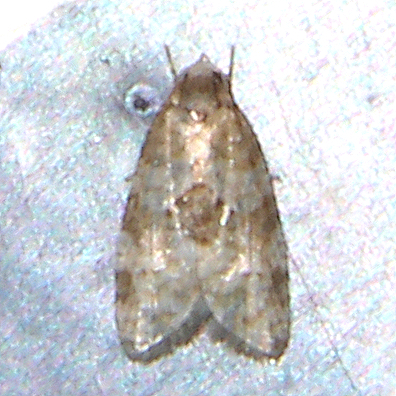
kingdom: Animalia
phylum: Arthropoda
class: Insecta
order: Lepidoptera
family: Tortricidae
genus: Dipterina
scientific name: Dipterina imbriferana
